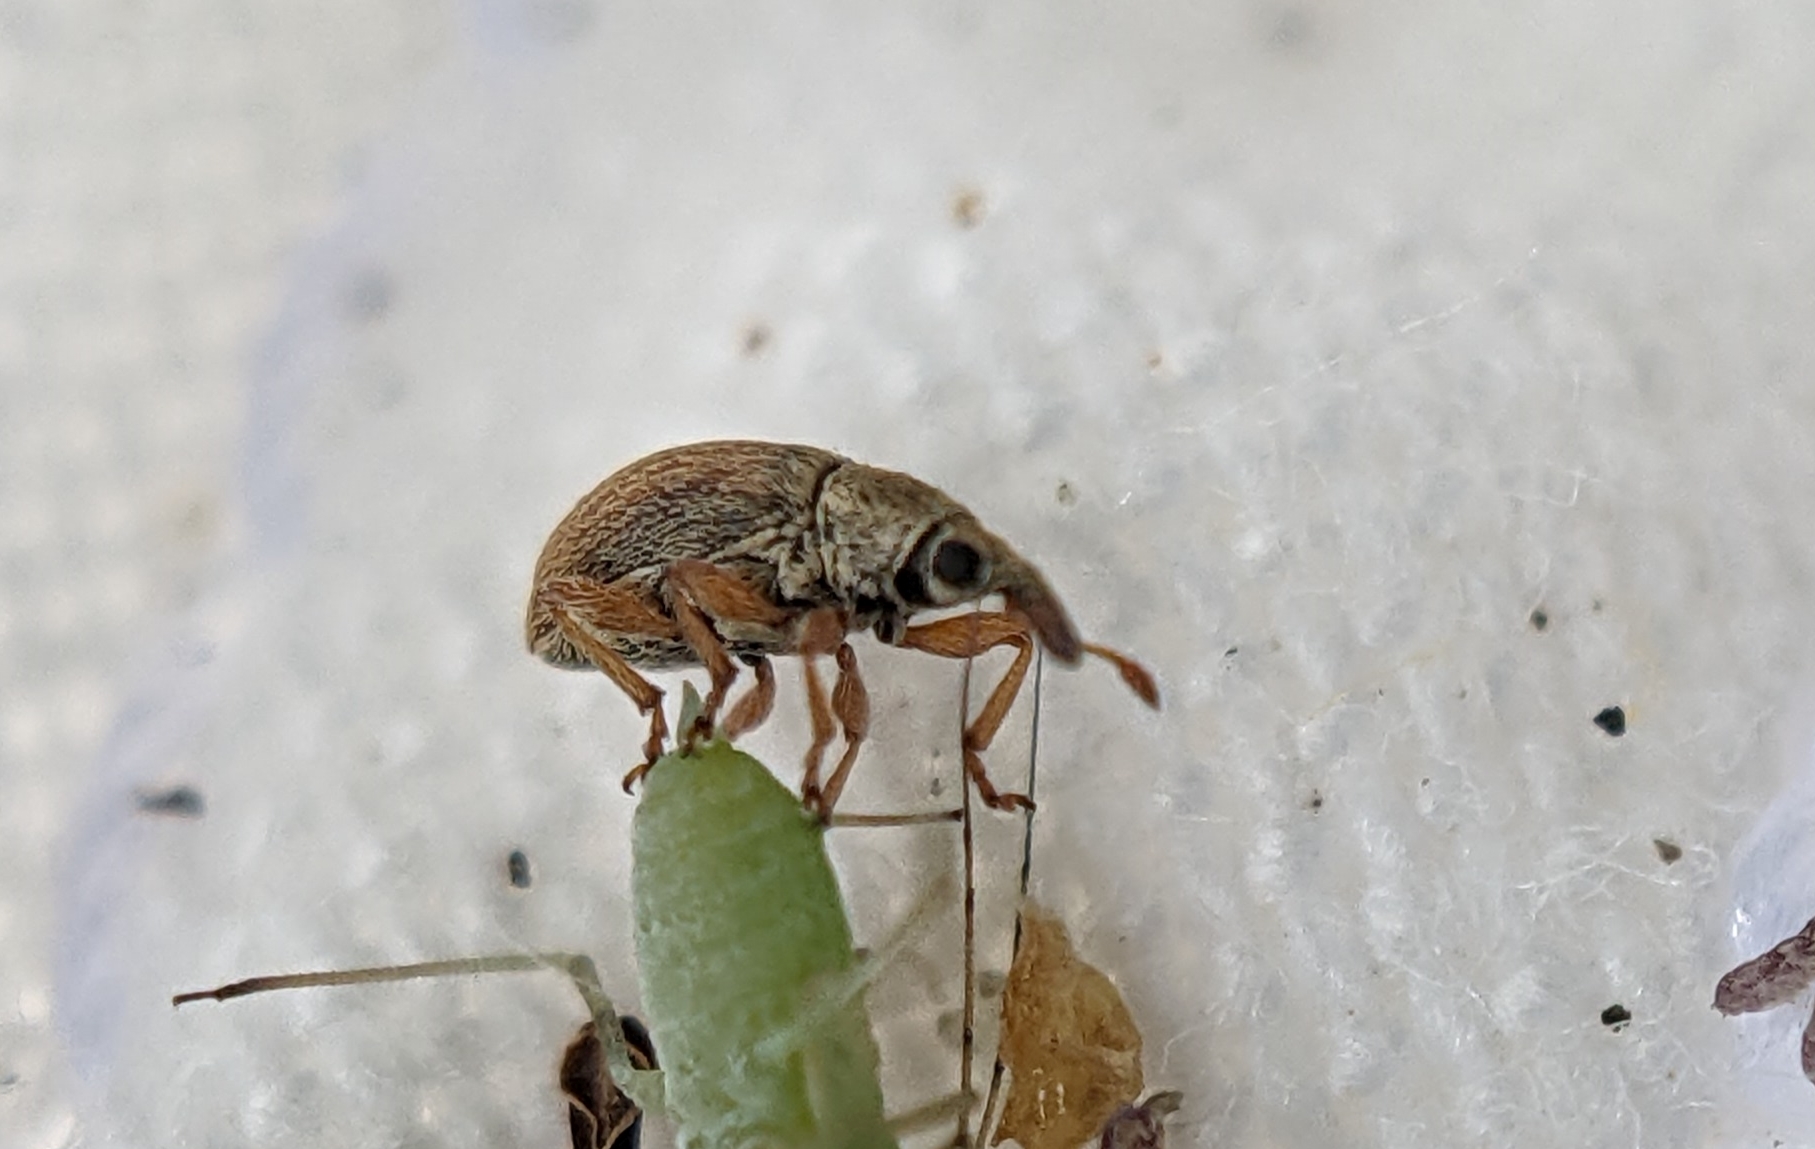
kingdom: Animalia
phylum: Arthropoda
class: Insecta
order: Coleoptera
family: Apionidae
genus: Malvapion
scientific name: Malvapion malvae
